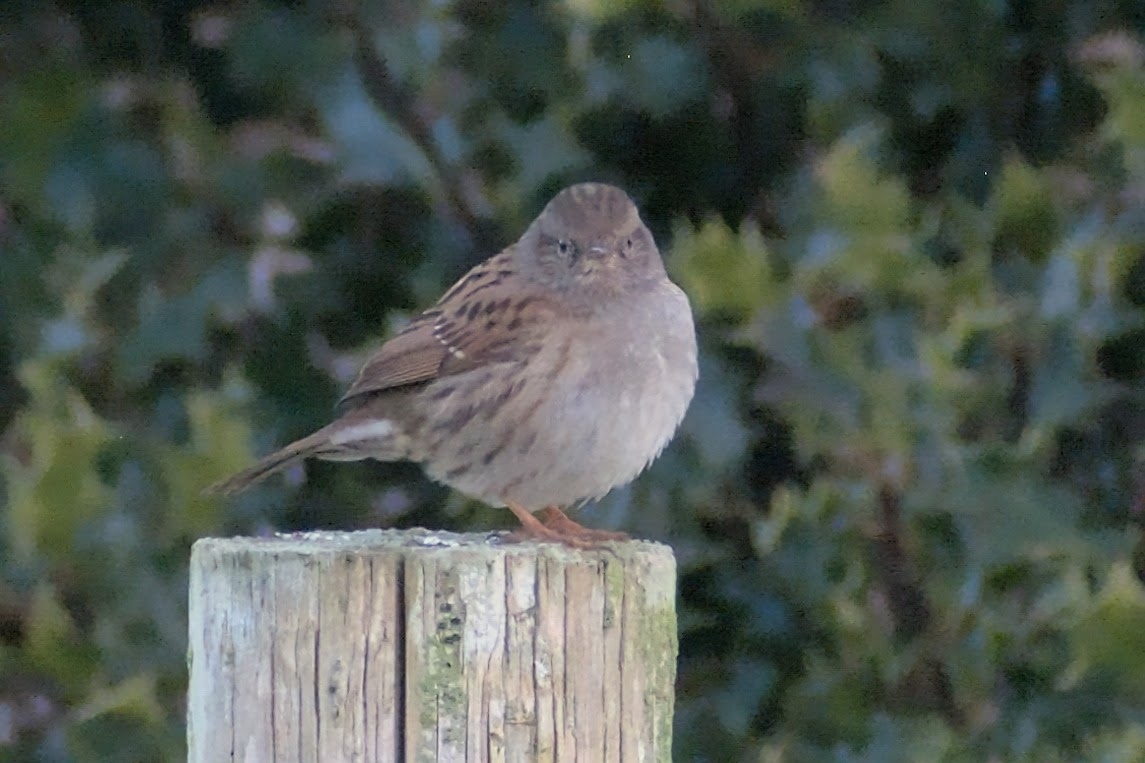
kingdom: Animalia
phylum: Chordata
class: Aves
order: Passeriformes
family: Prunellidae
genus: Prunella
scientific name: Prunella modularis
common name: Dunnock
